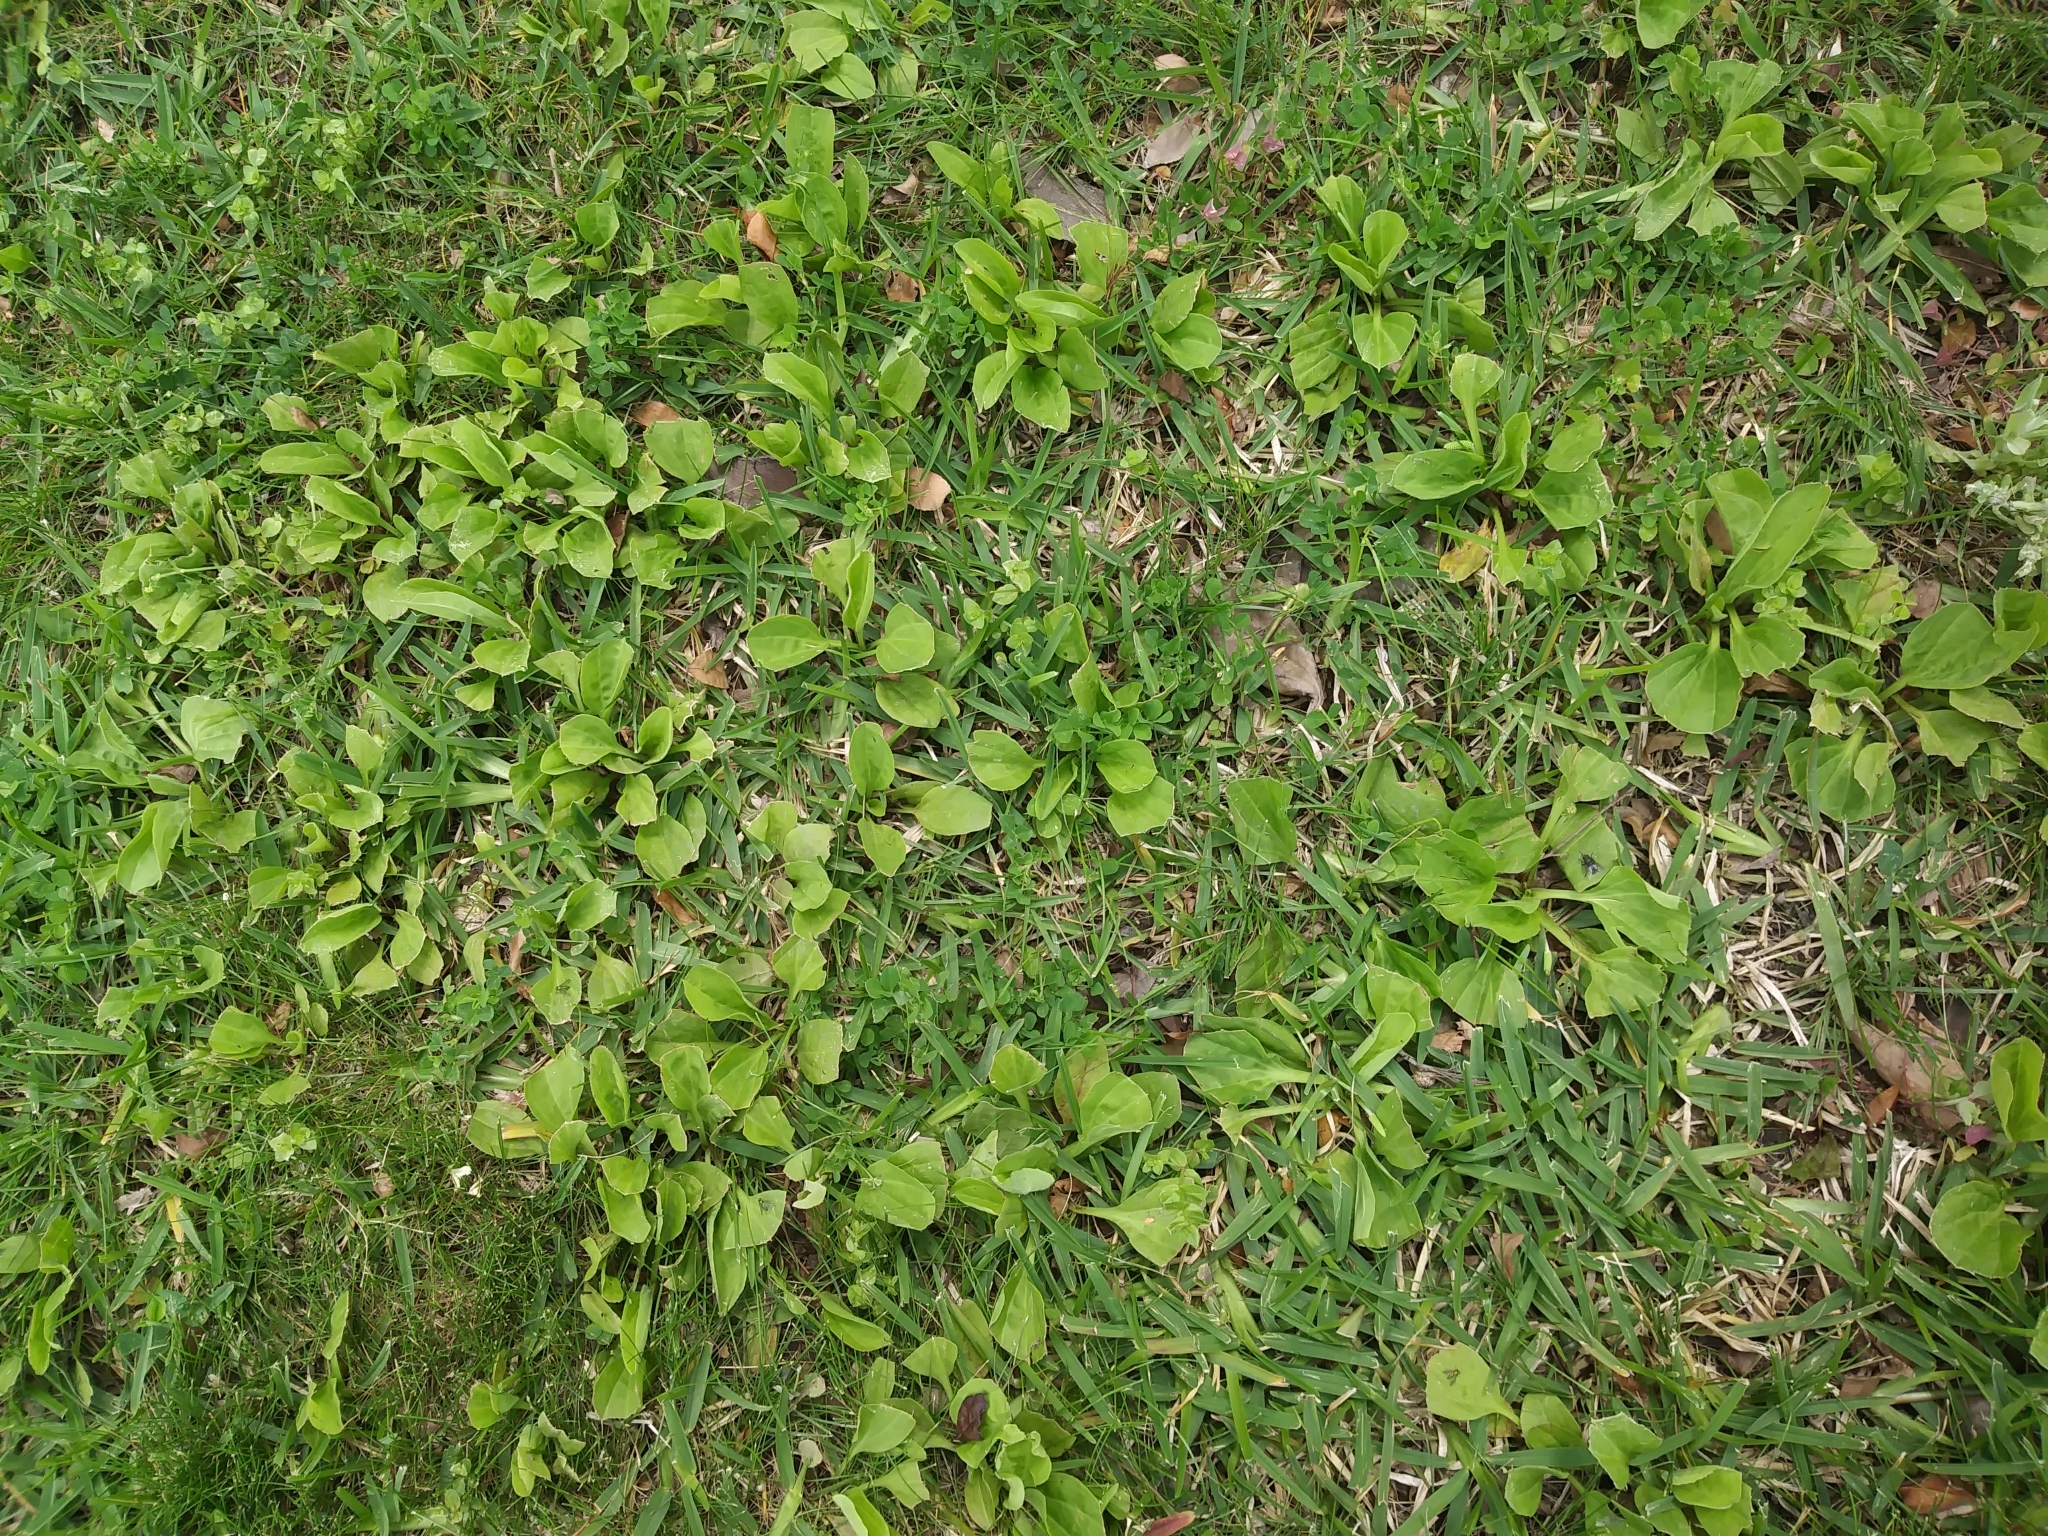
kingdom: Plantae
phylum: Tracheophyta
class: Magnoliopsida
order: Lamiales
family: Plantaginaceae
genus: Plantago
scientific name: Plantago major
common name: Common plantain
